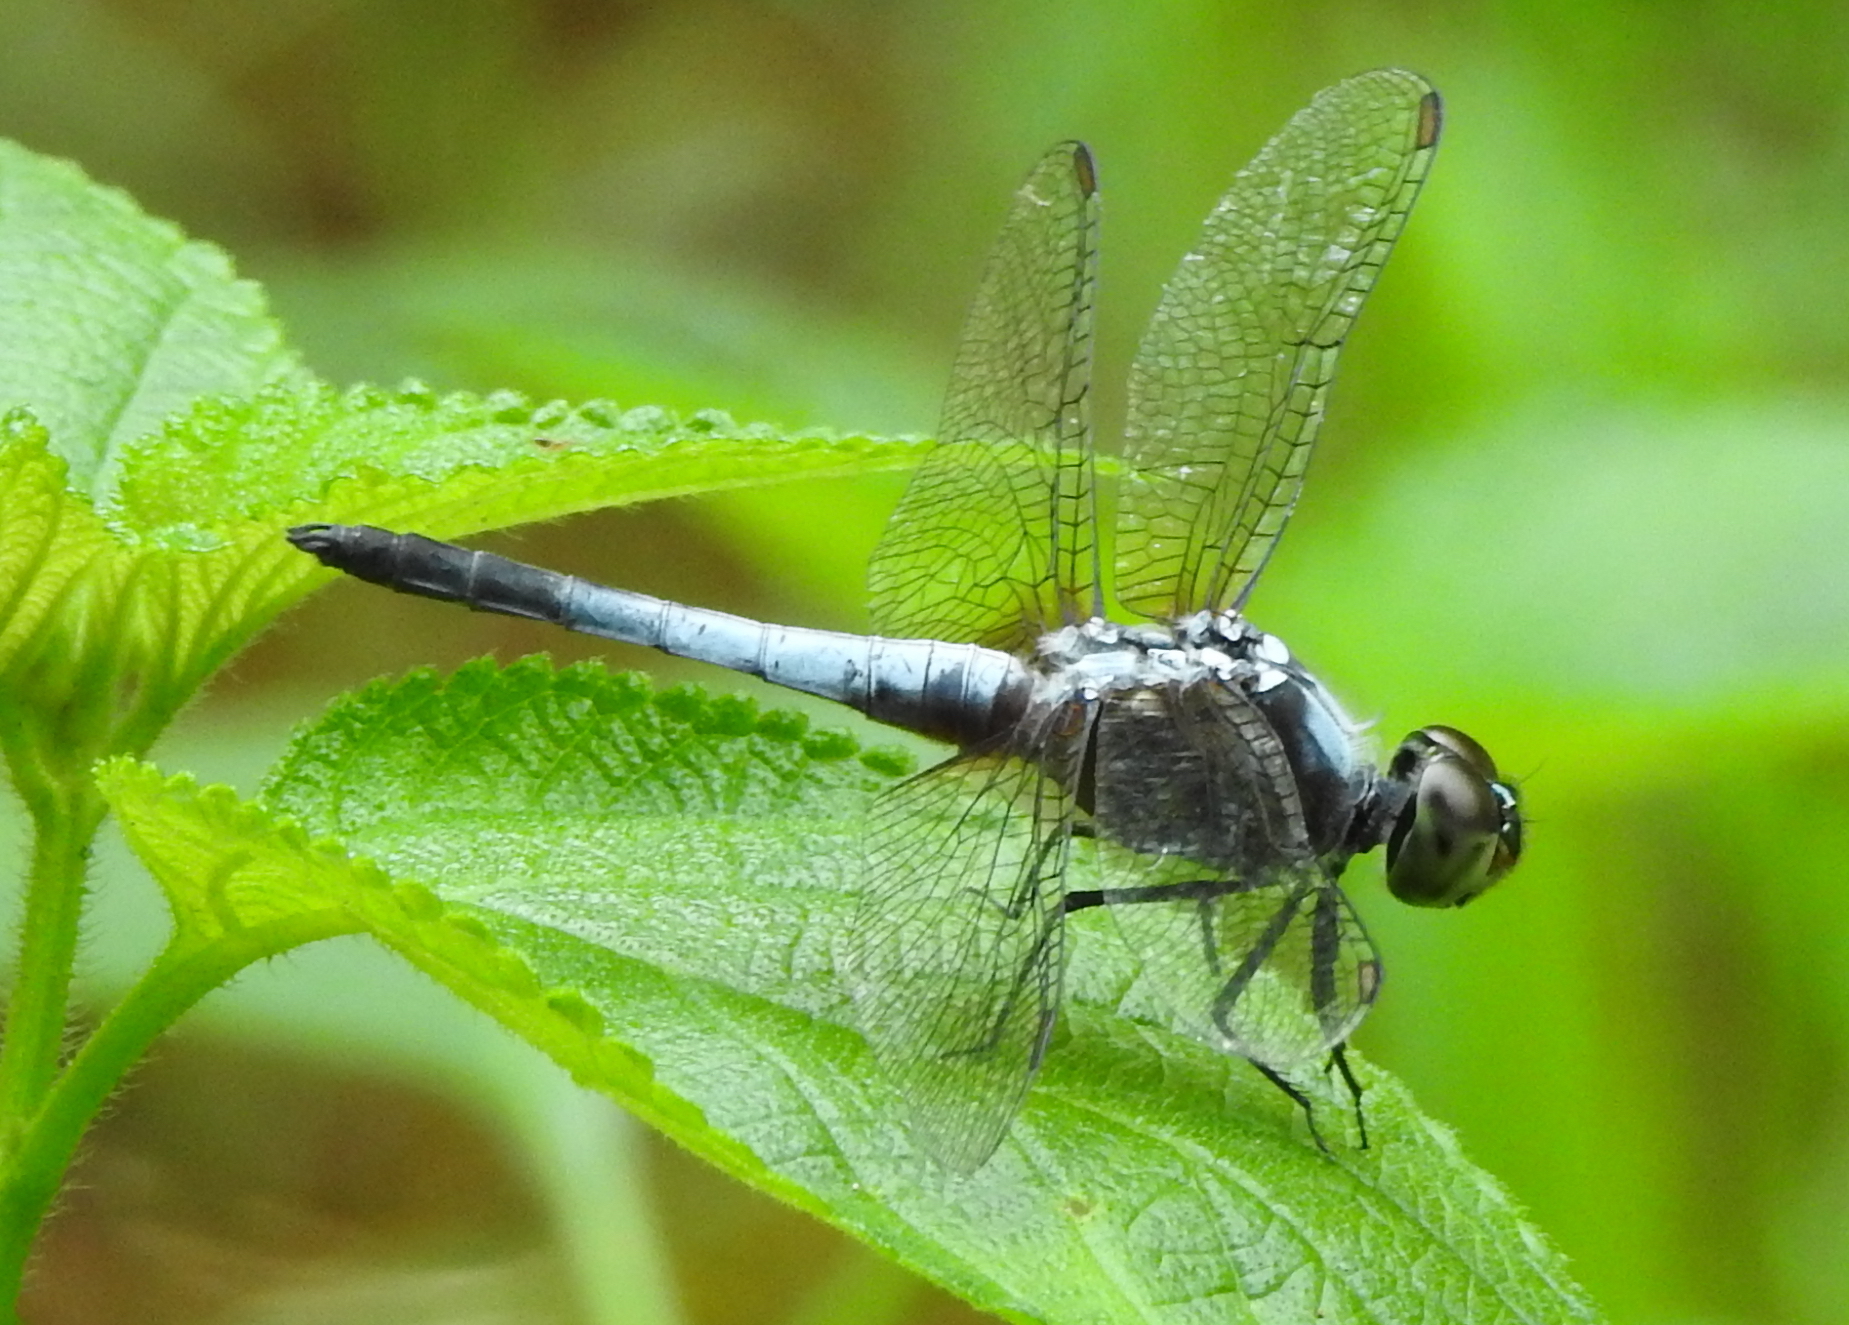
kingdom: Animalia
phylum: Arthropoda
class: Insecta
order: Odonata
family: Libellulidae
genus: Brachydiplax
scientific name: Brachydiplax chalybea
